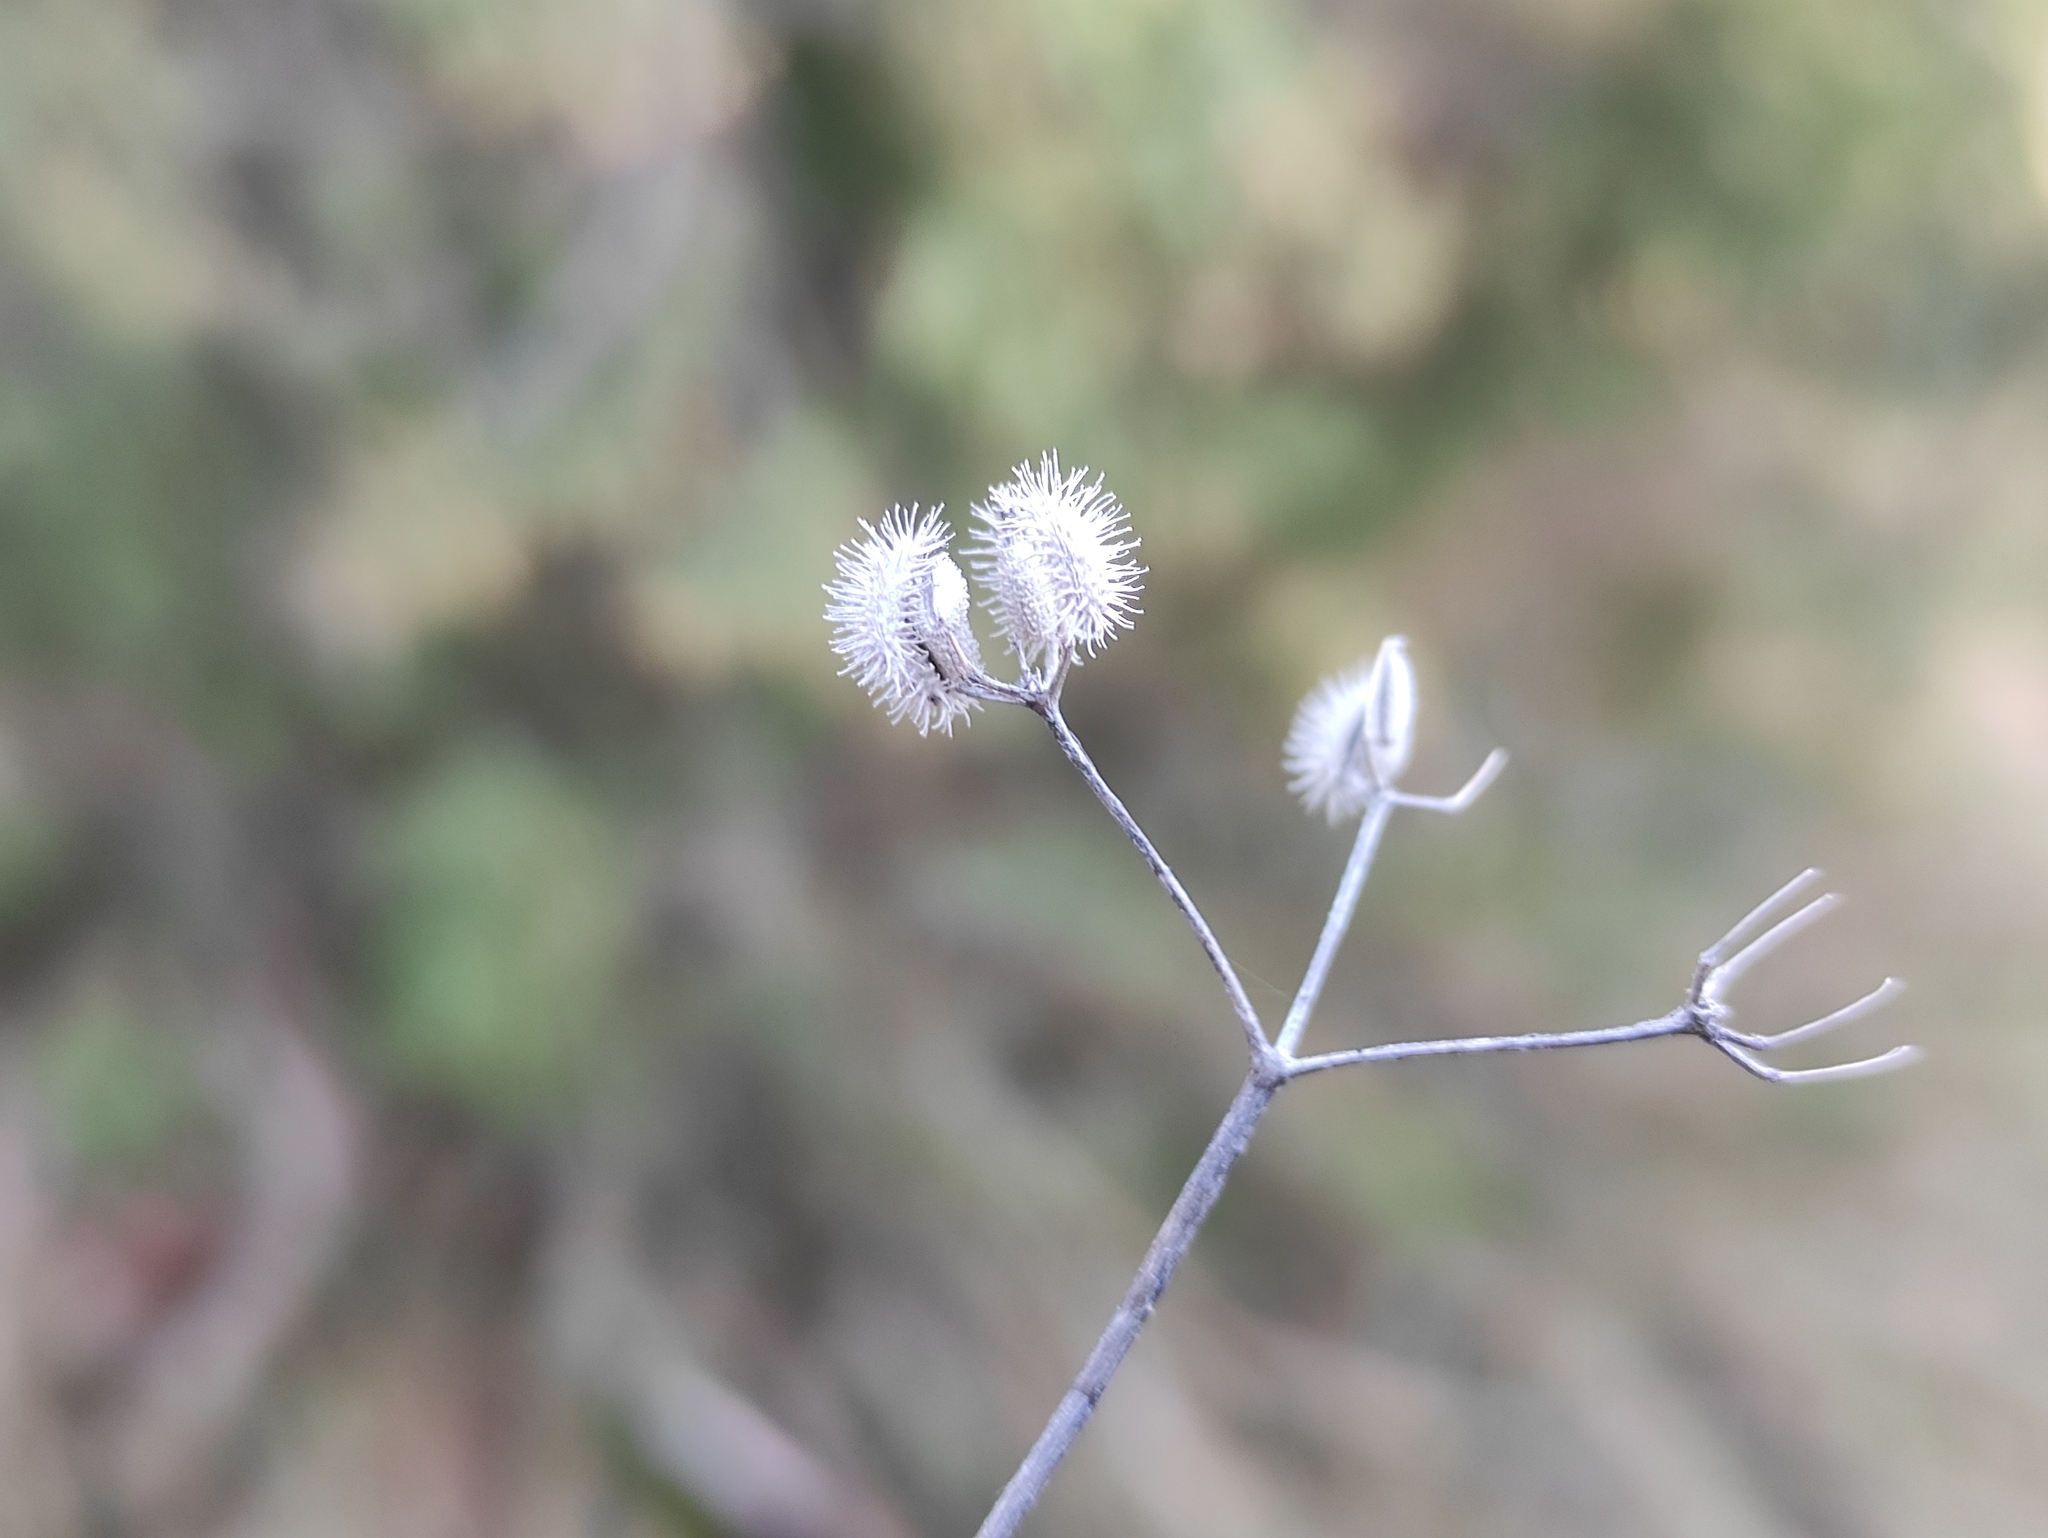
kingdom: Plantae
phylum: Tracheophyta
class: Magnoliopsida
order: Apiales
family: Apiaceae
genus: Torilis
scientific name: Torilis africana
